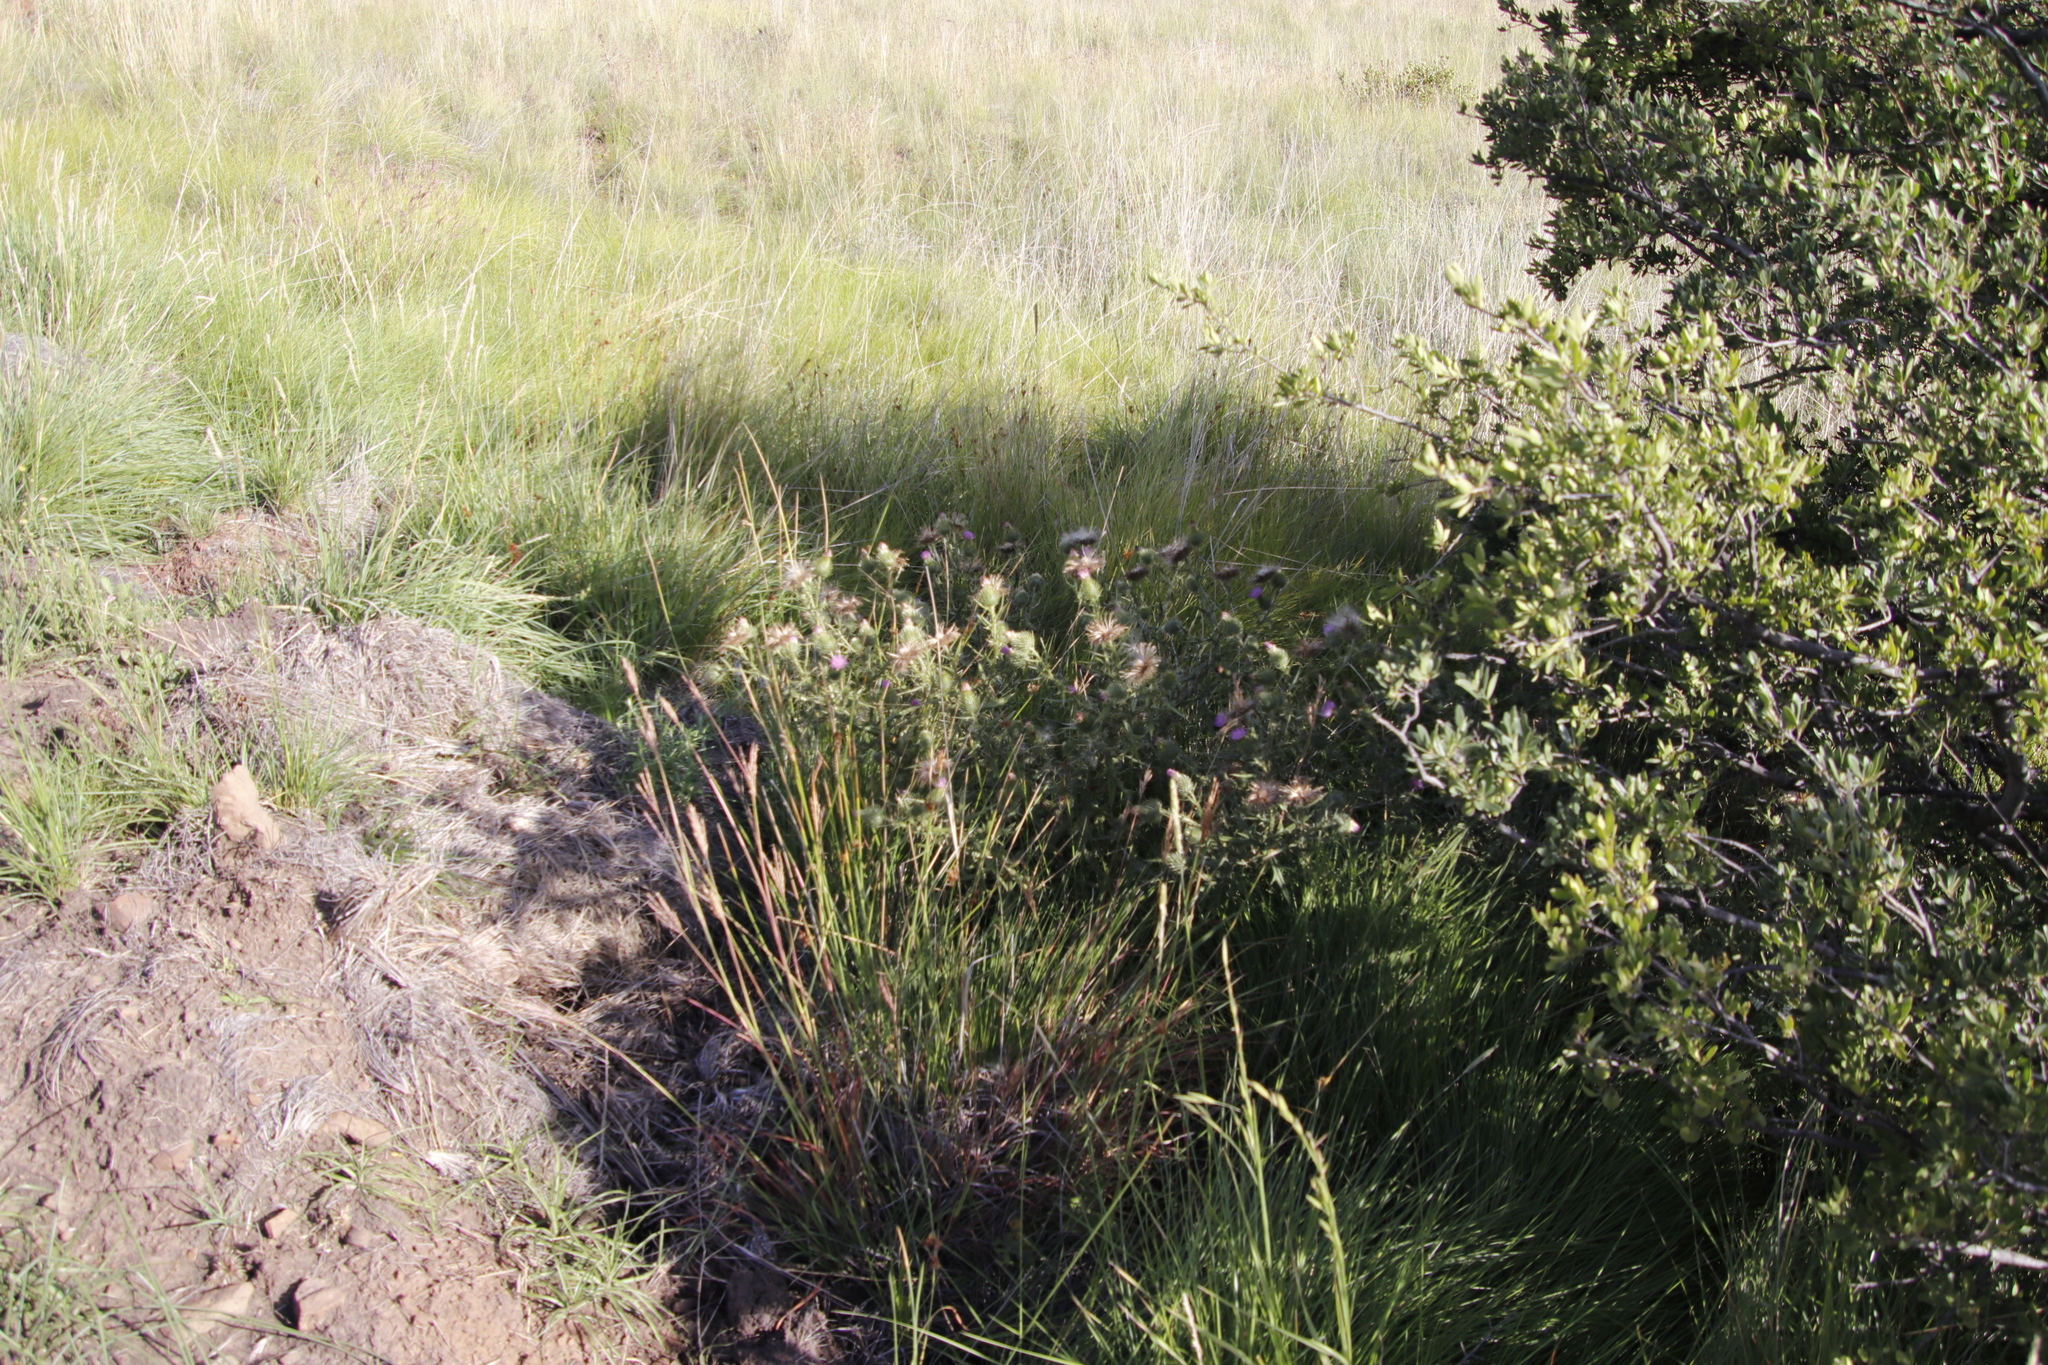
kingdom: Plantae
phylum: Tracheophyta
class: Magnoliopsida
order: Asterales
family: Asteraceae
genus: Cirsium
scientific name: Cirsium vulgare
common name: Bull thistle
